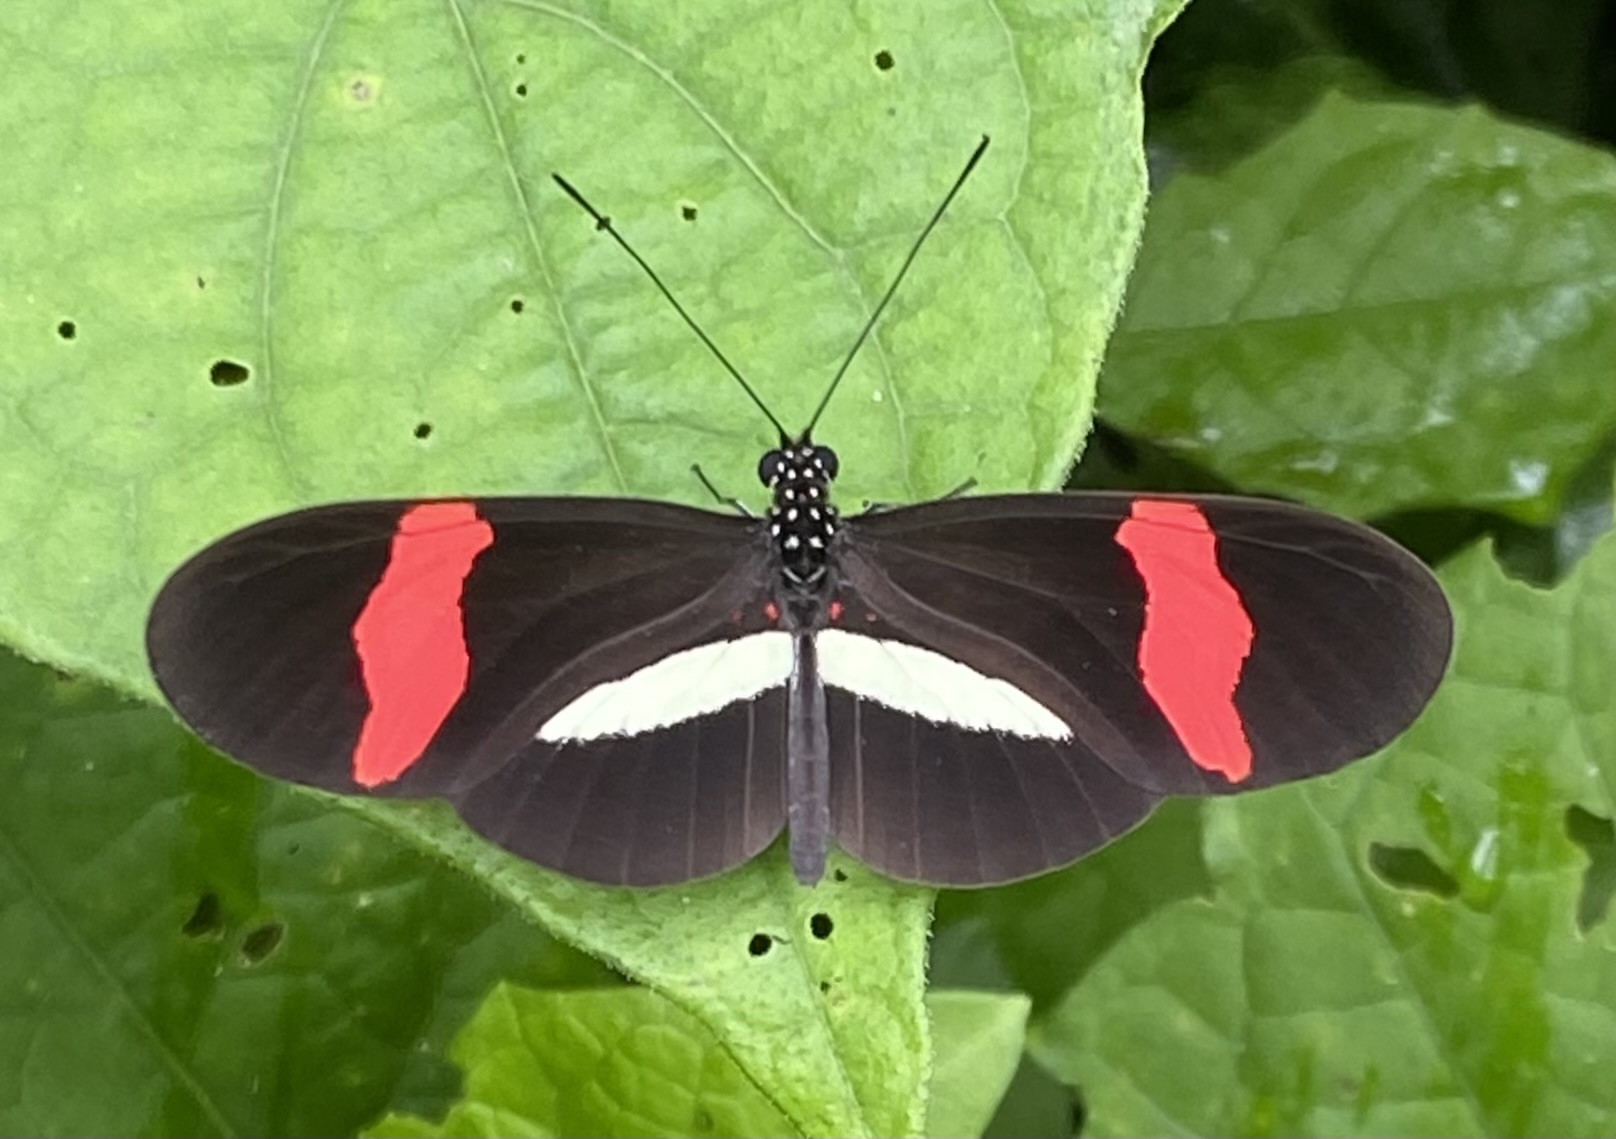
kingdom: Animalia
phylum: Arthropoda
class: Insecta
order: Lepidoptera
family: Nymphalidae
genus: Heliconius
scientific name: Heliconius erato
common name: Common patch longwing
